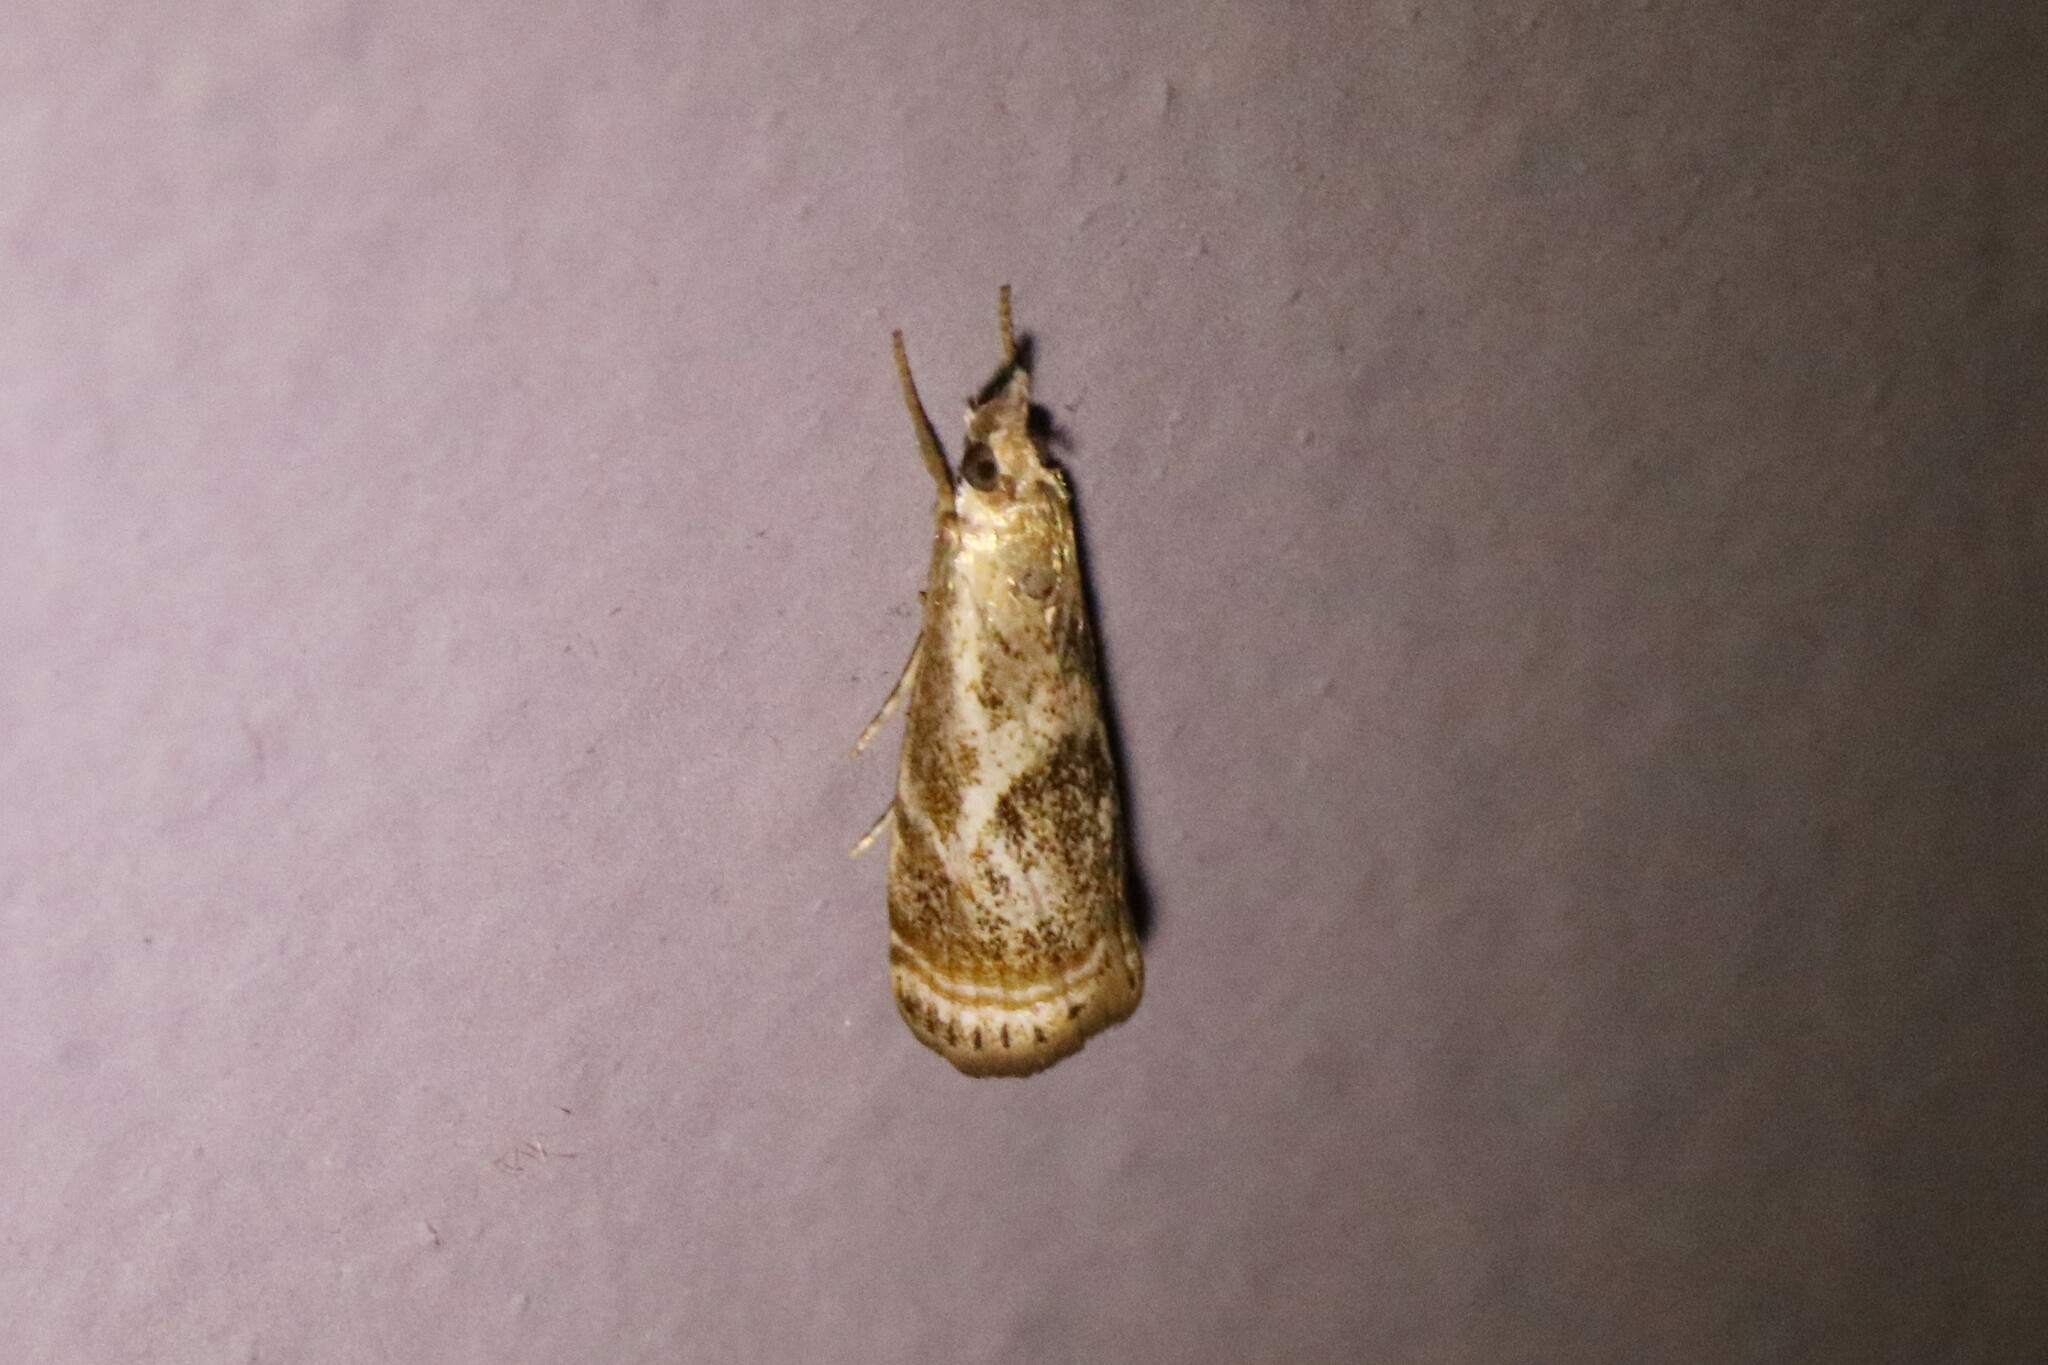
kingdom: Animalia
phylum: Arthropoda
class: Insecta
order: Lepidoptera
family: Crambidae
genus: Microcrambus
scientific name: Microcrambus elegans
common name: Elegant grass-veneer
